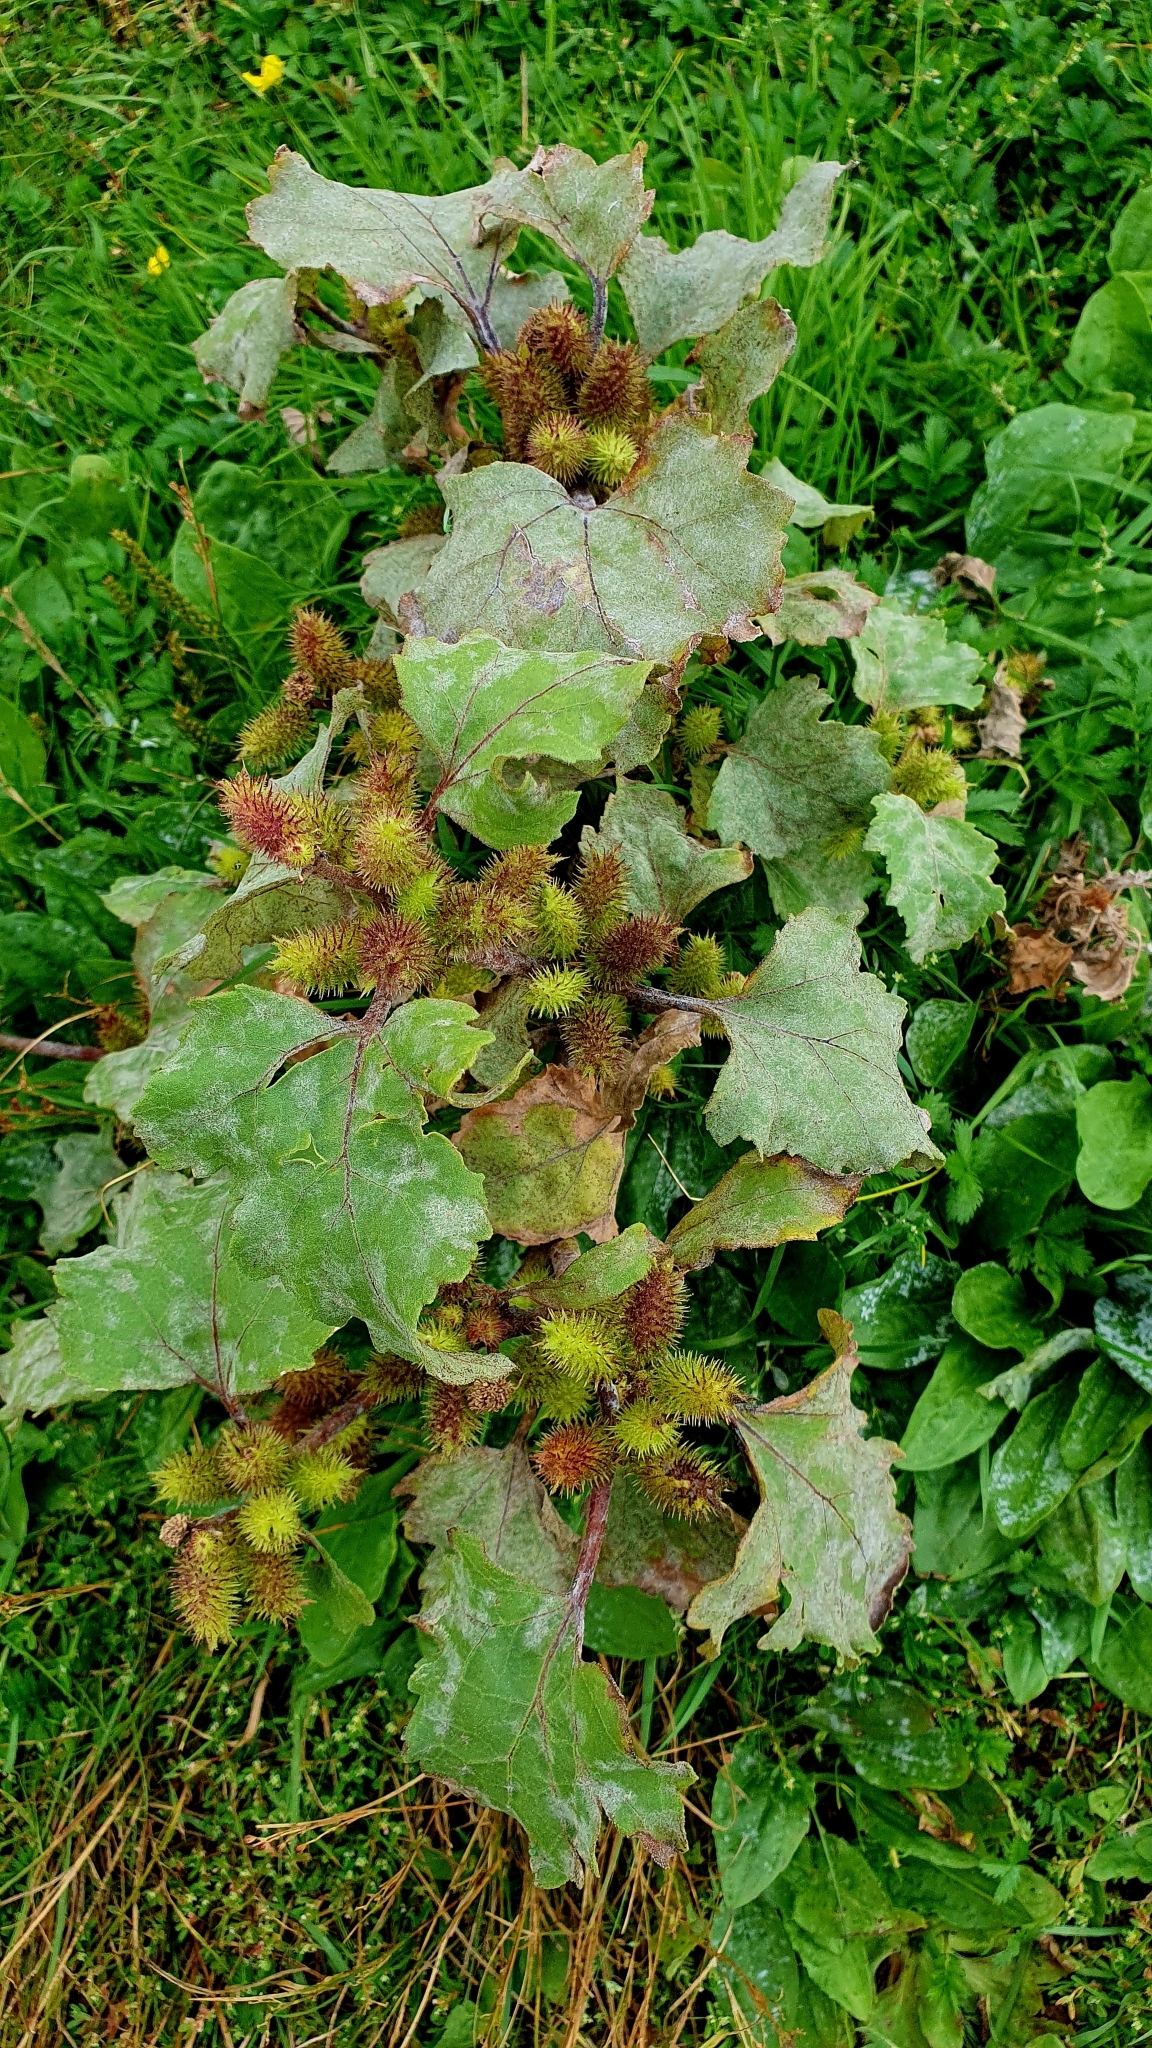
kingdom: Plantae
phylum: Tracheophyta
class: Magnoliopsida
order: Asterales
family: Asteraceae
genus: Xanthium
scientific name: Xanthium orientale
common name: Californian burr
